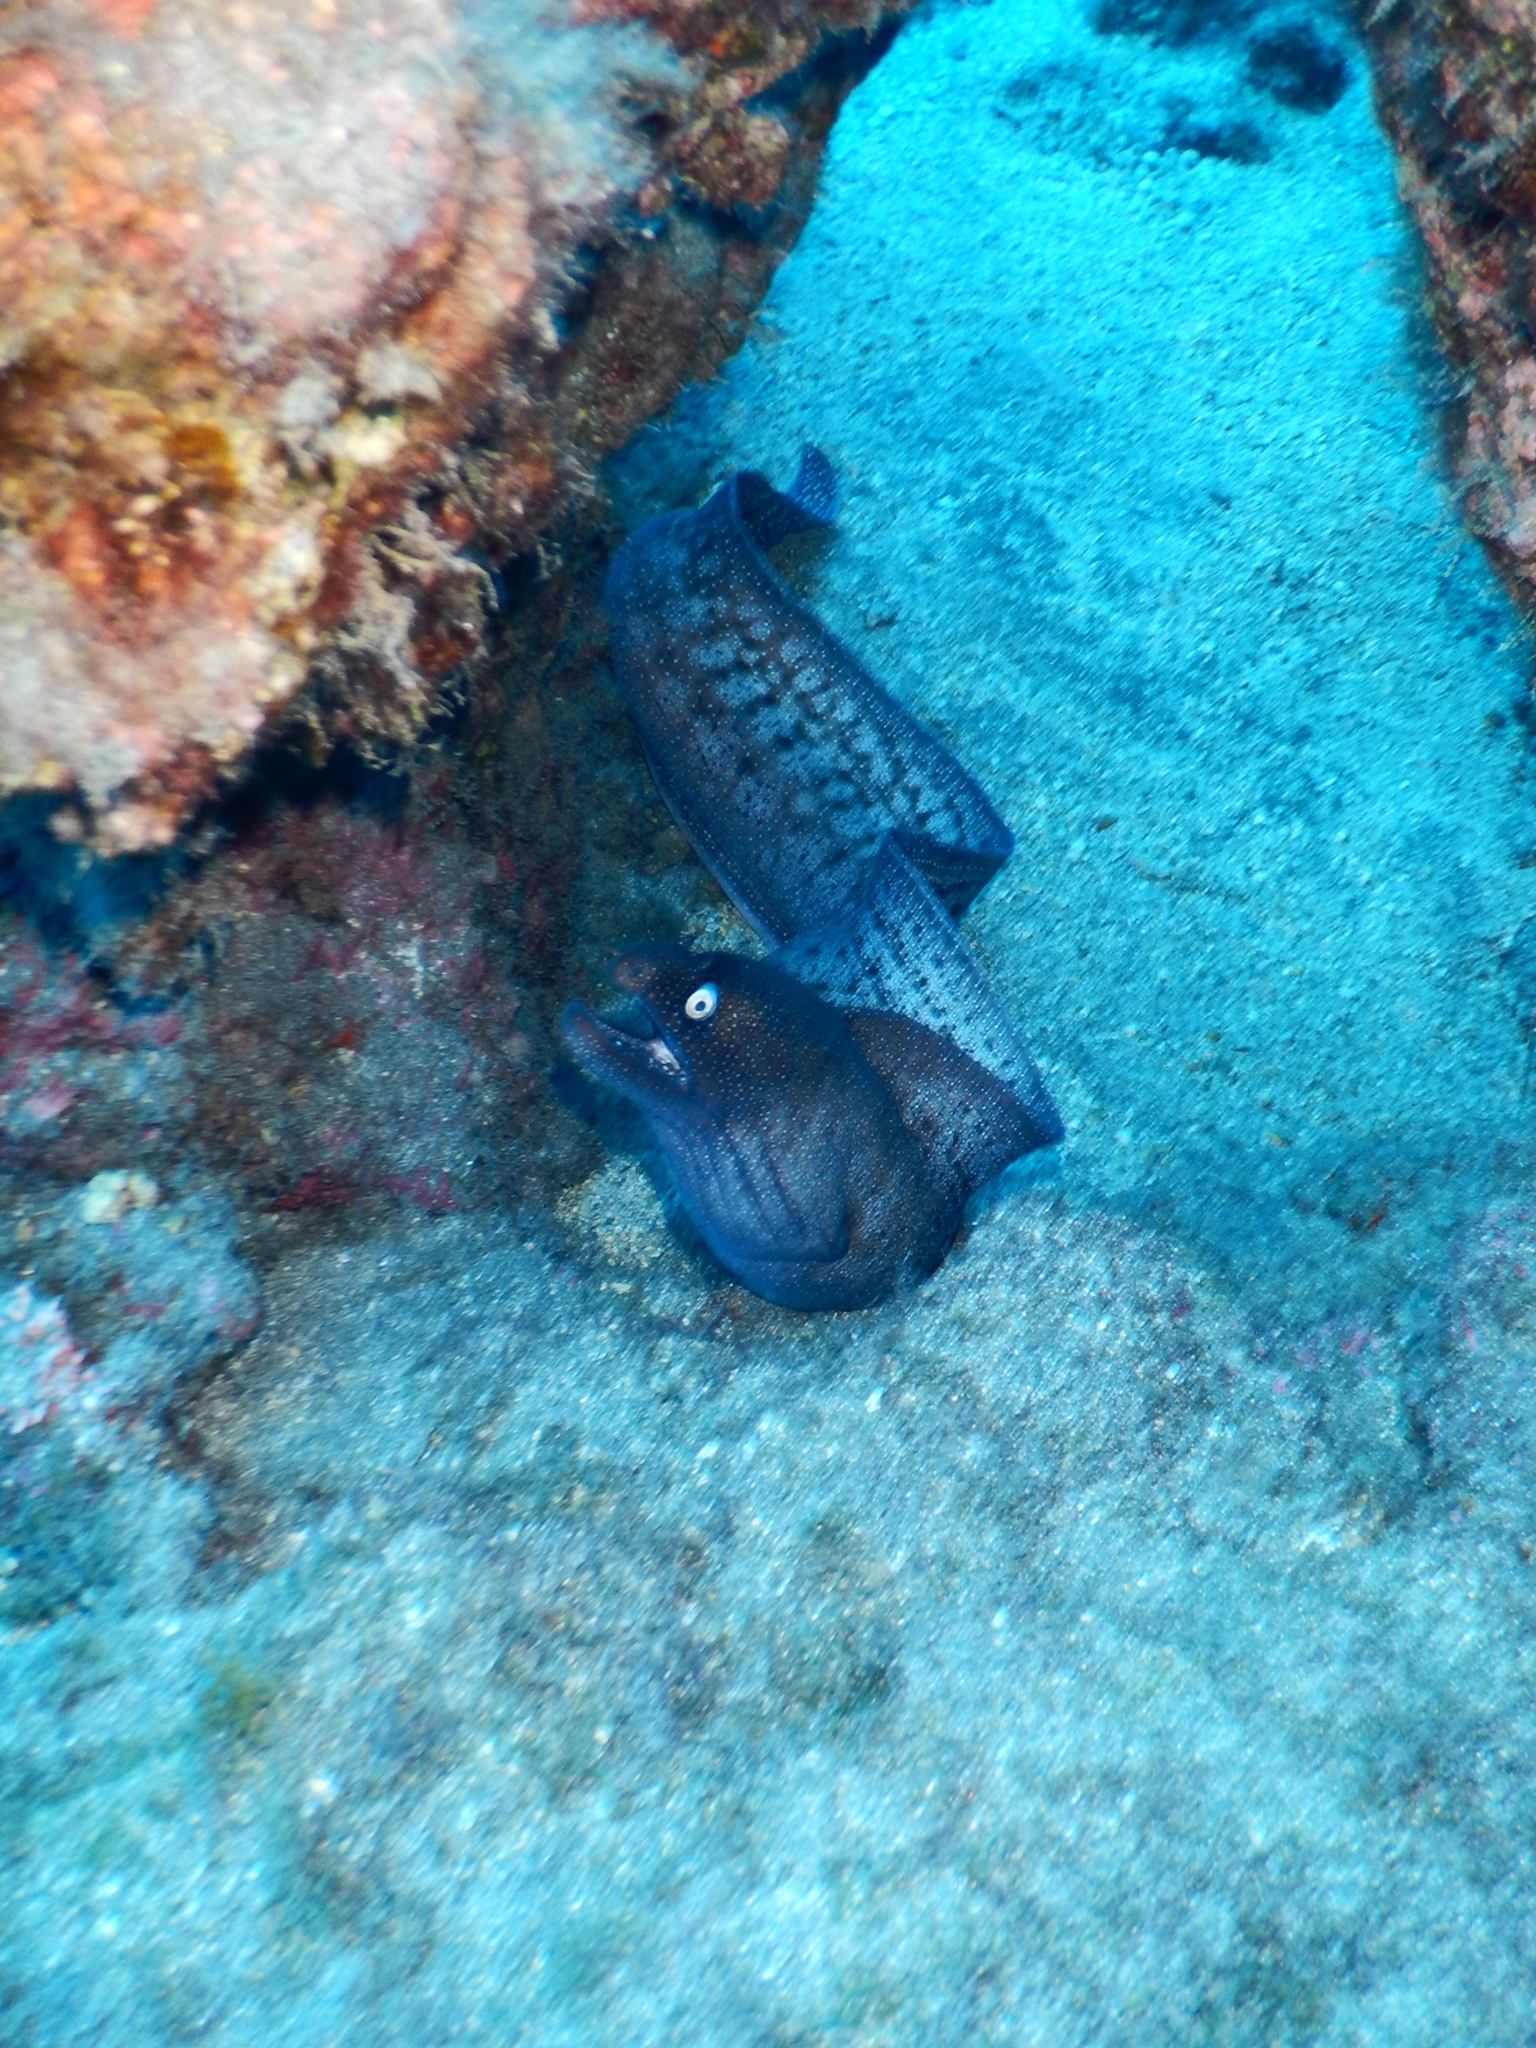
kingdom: Animalia
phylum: Chordata
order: Anguilliformes
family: Muraenidae
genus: Muraena
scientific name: Muraena augusti
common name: Mediterranean moray
